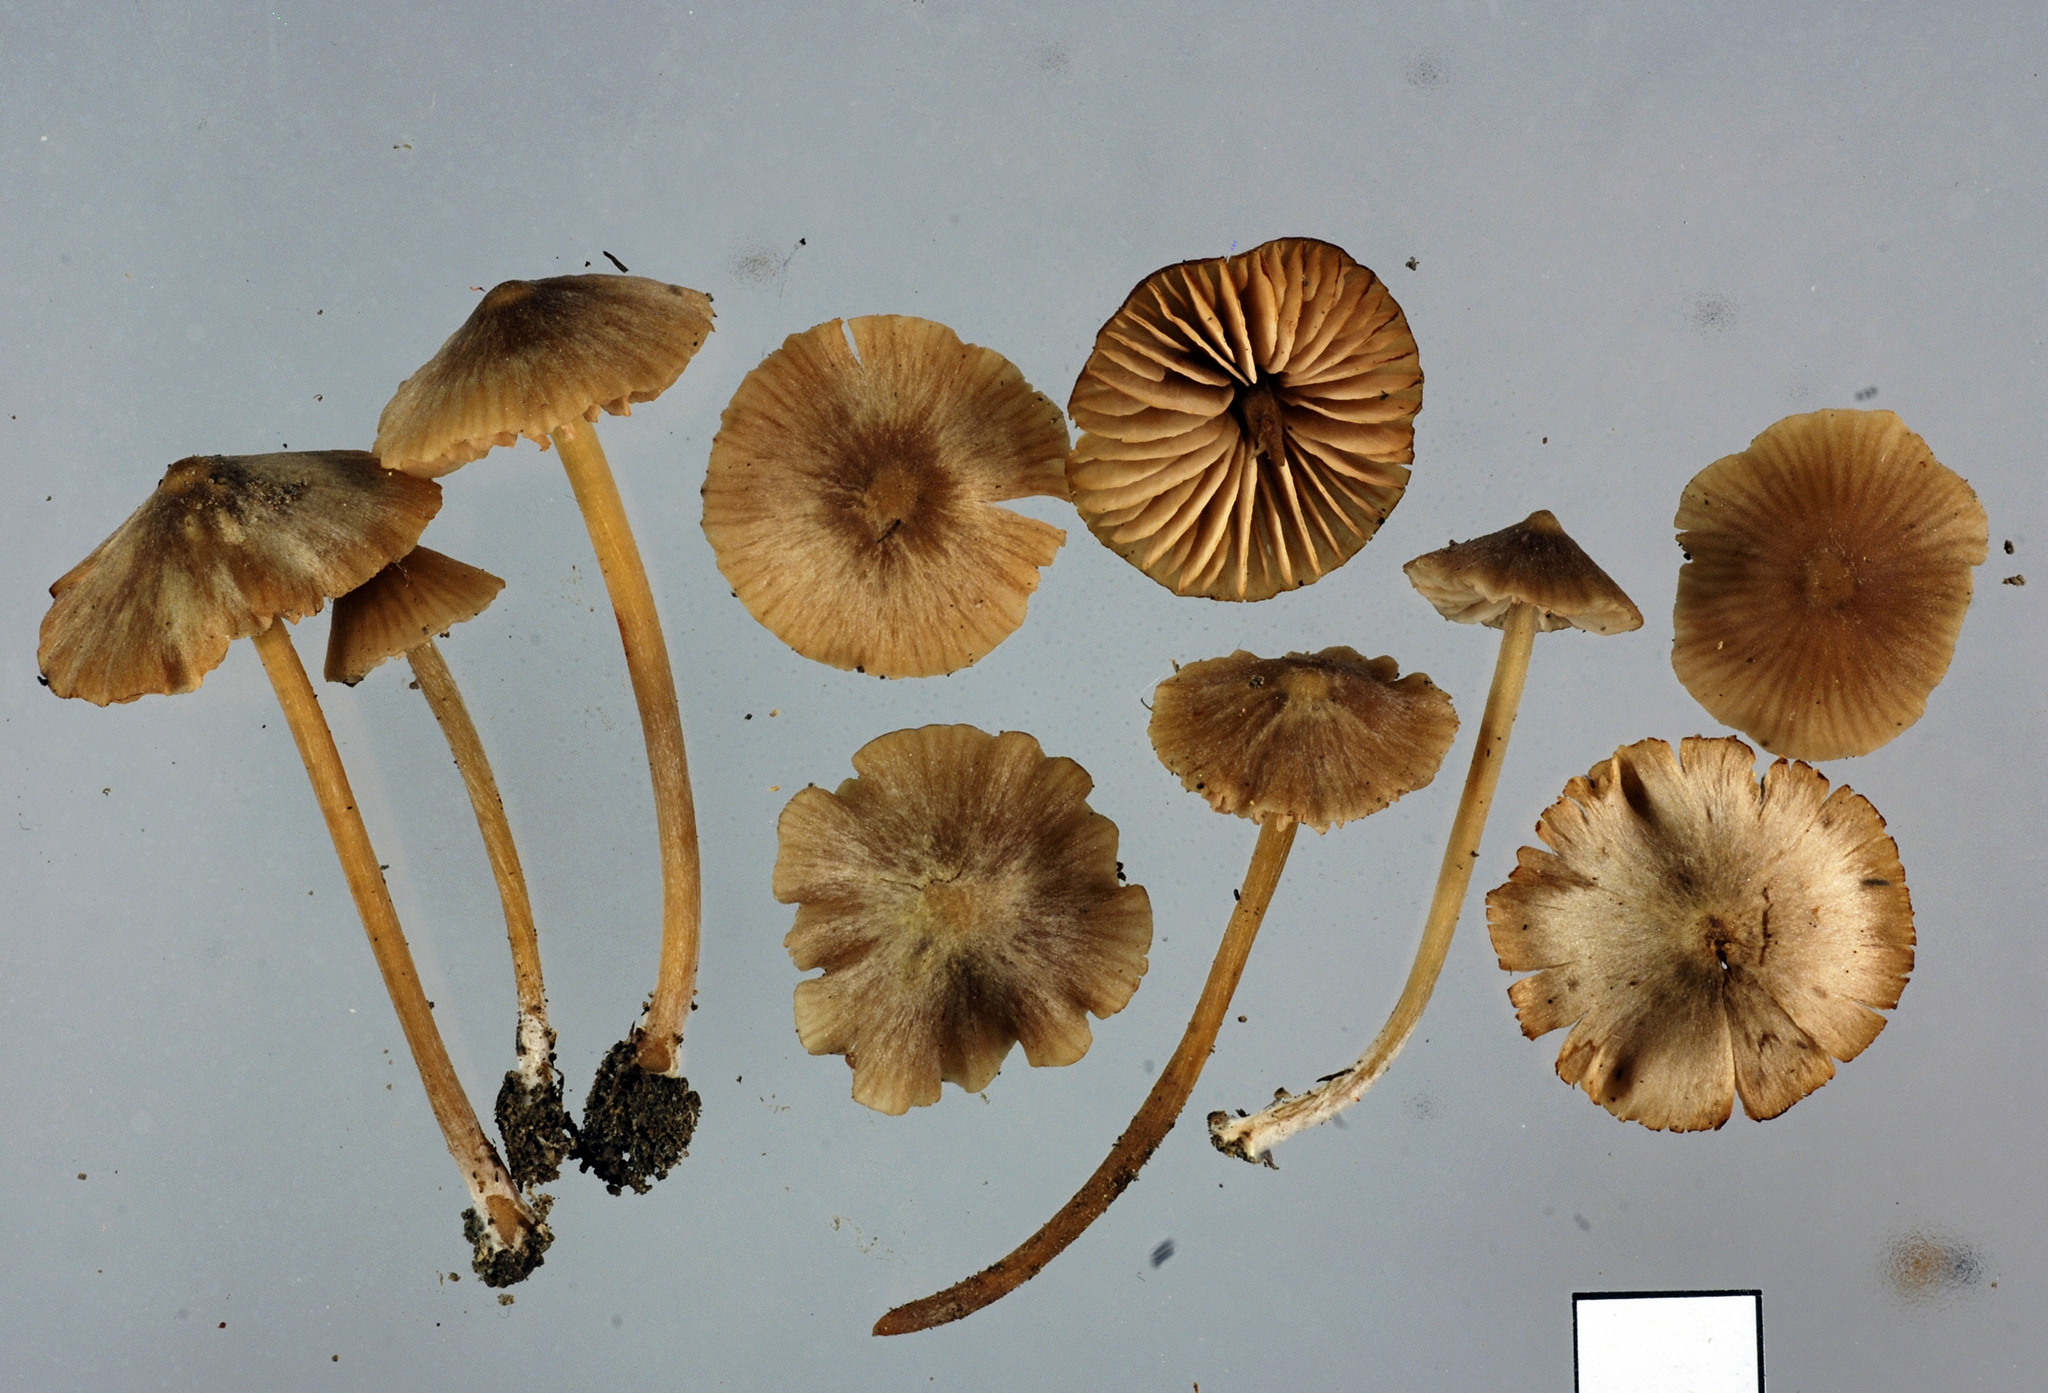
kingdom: Fungi
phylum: Basidiomycota
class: Agaricomycetes
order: Agaricales
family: Entolomataceae
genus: Entoloma
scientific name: Entoloma aromaticum
